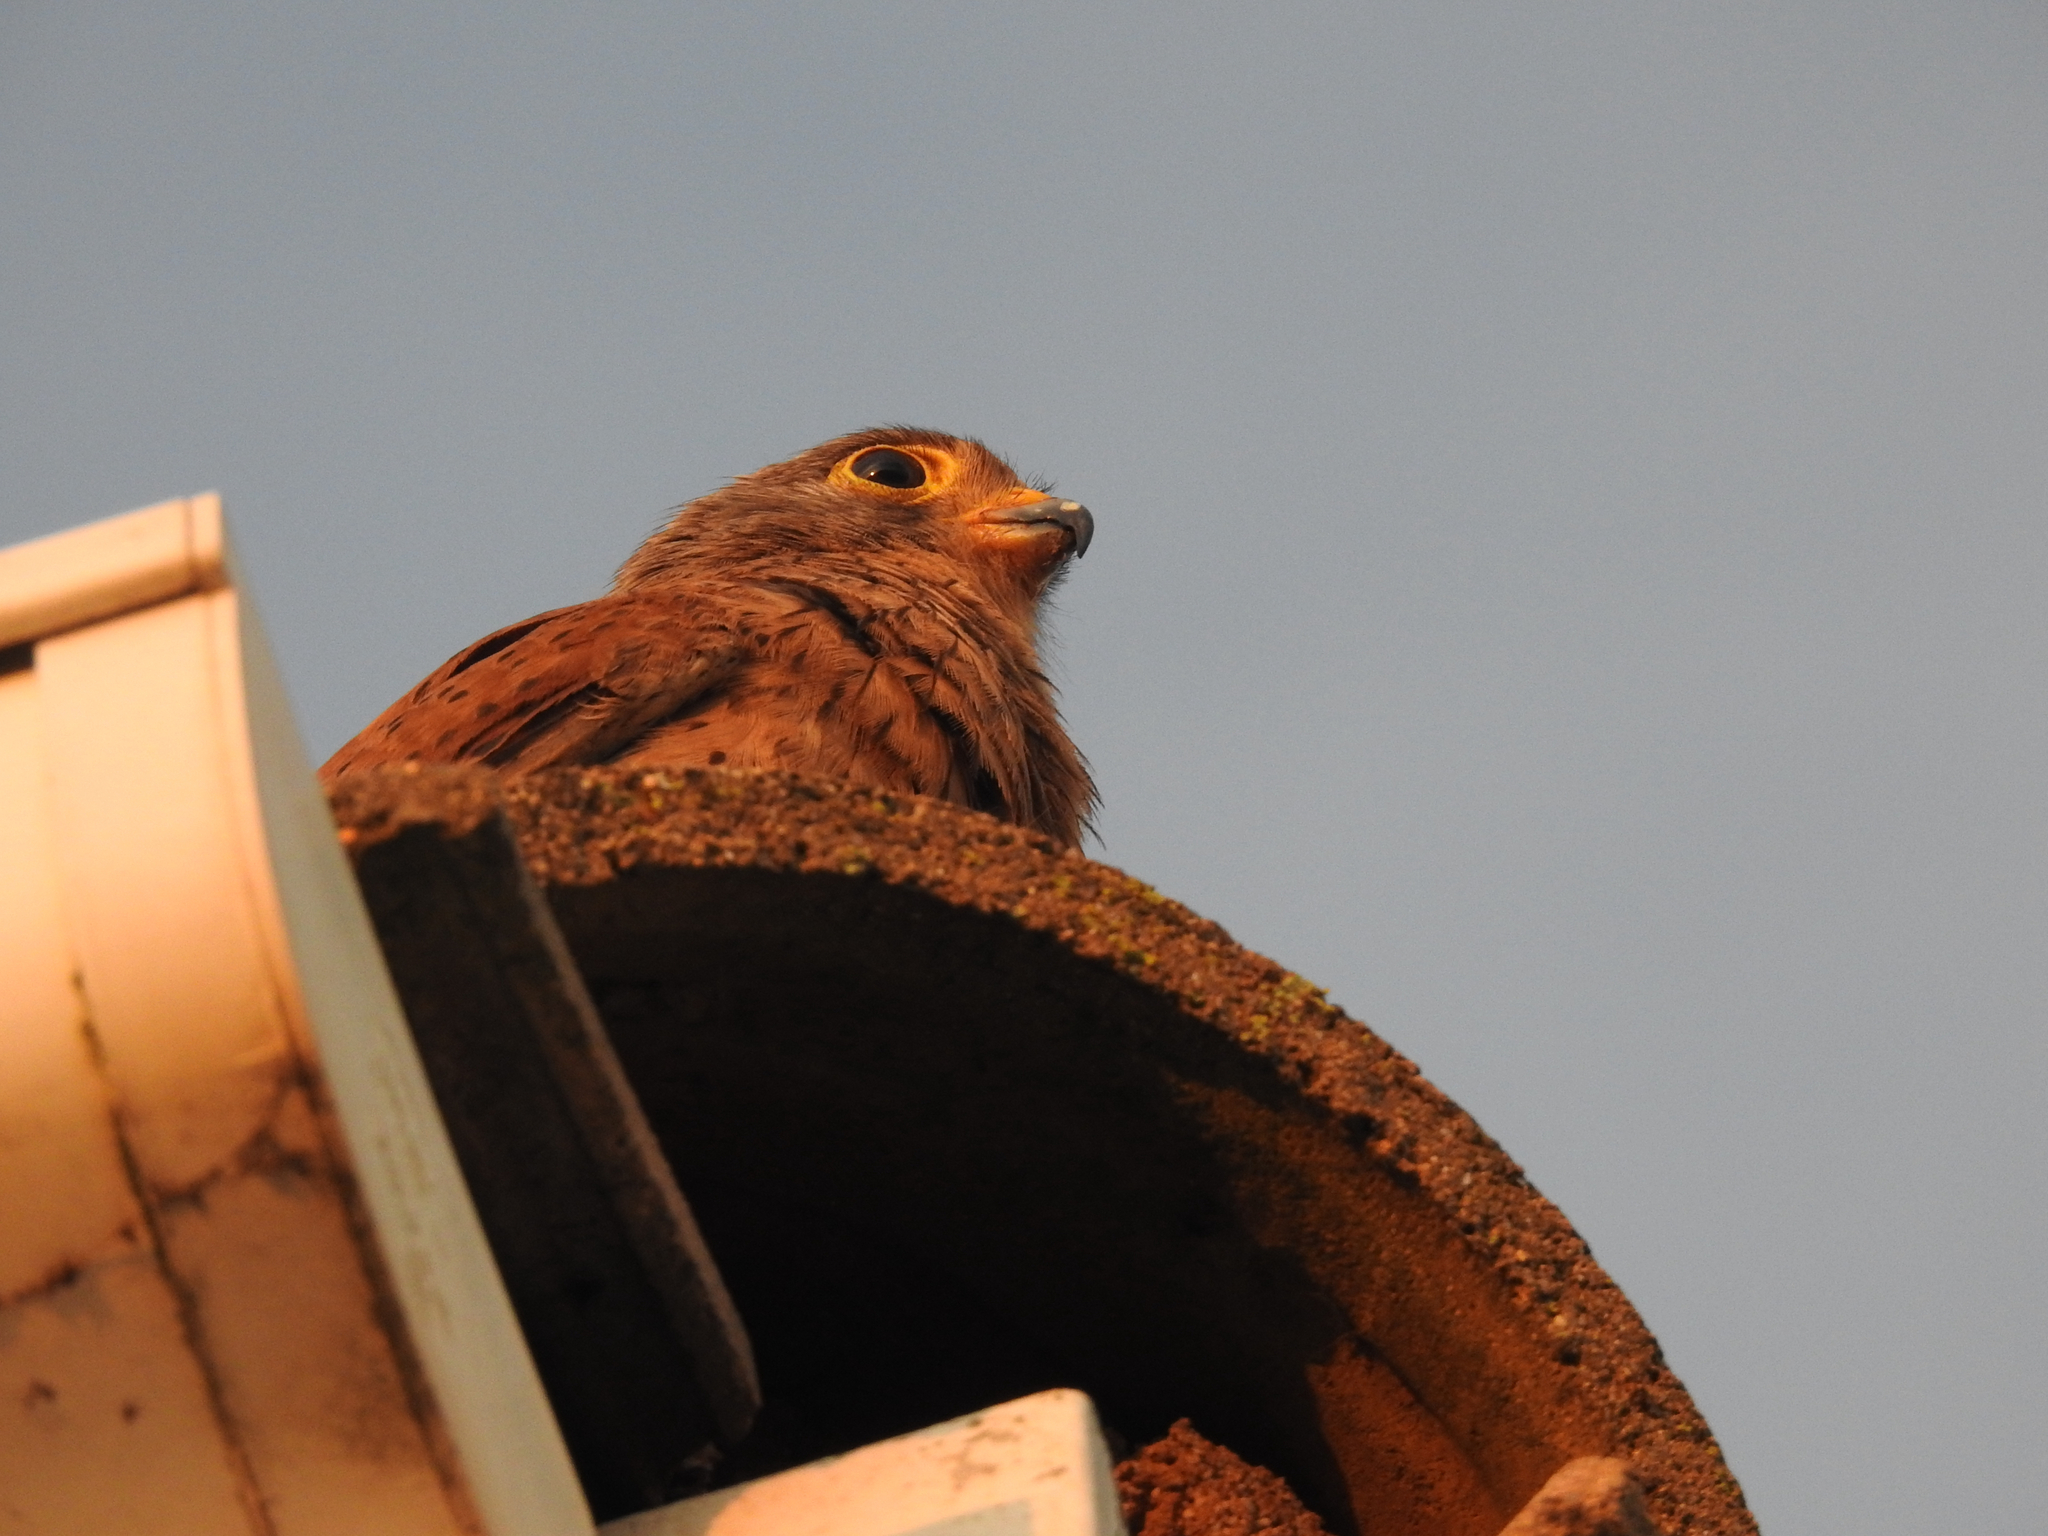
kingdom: Animalia
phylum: Chordata
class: Aves
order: Falconiformes
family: Falconidae
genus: Falco
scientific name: Falco rupicolus
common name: Rock kestrel
